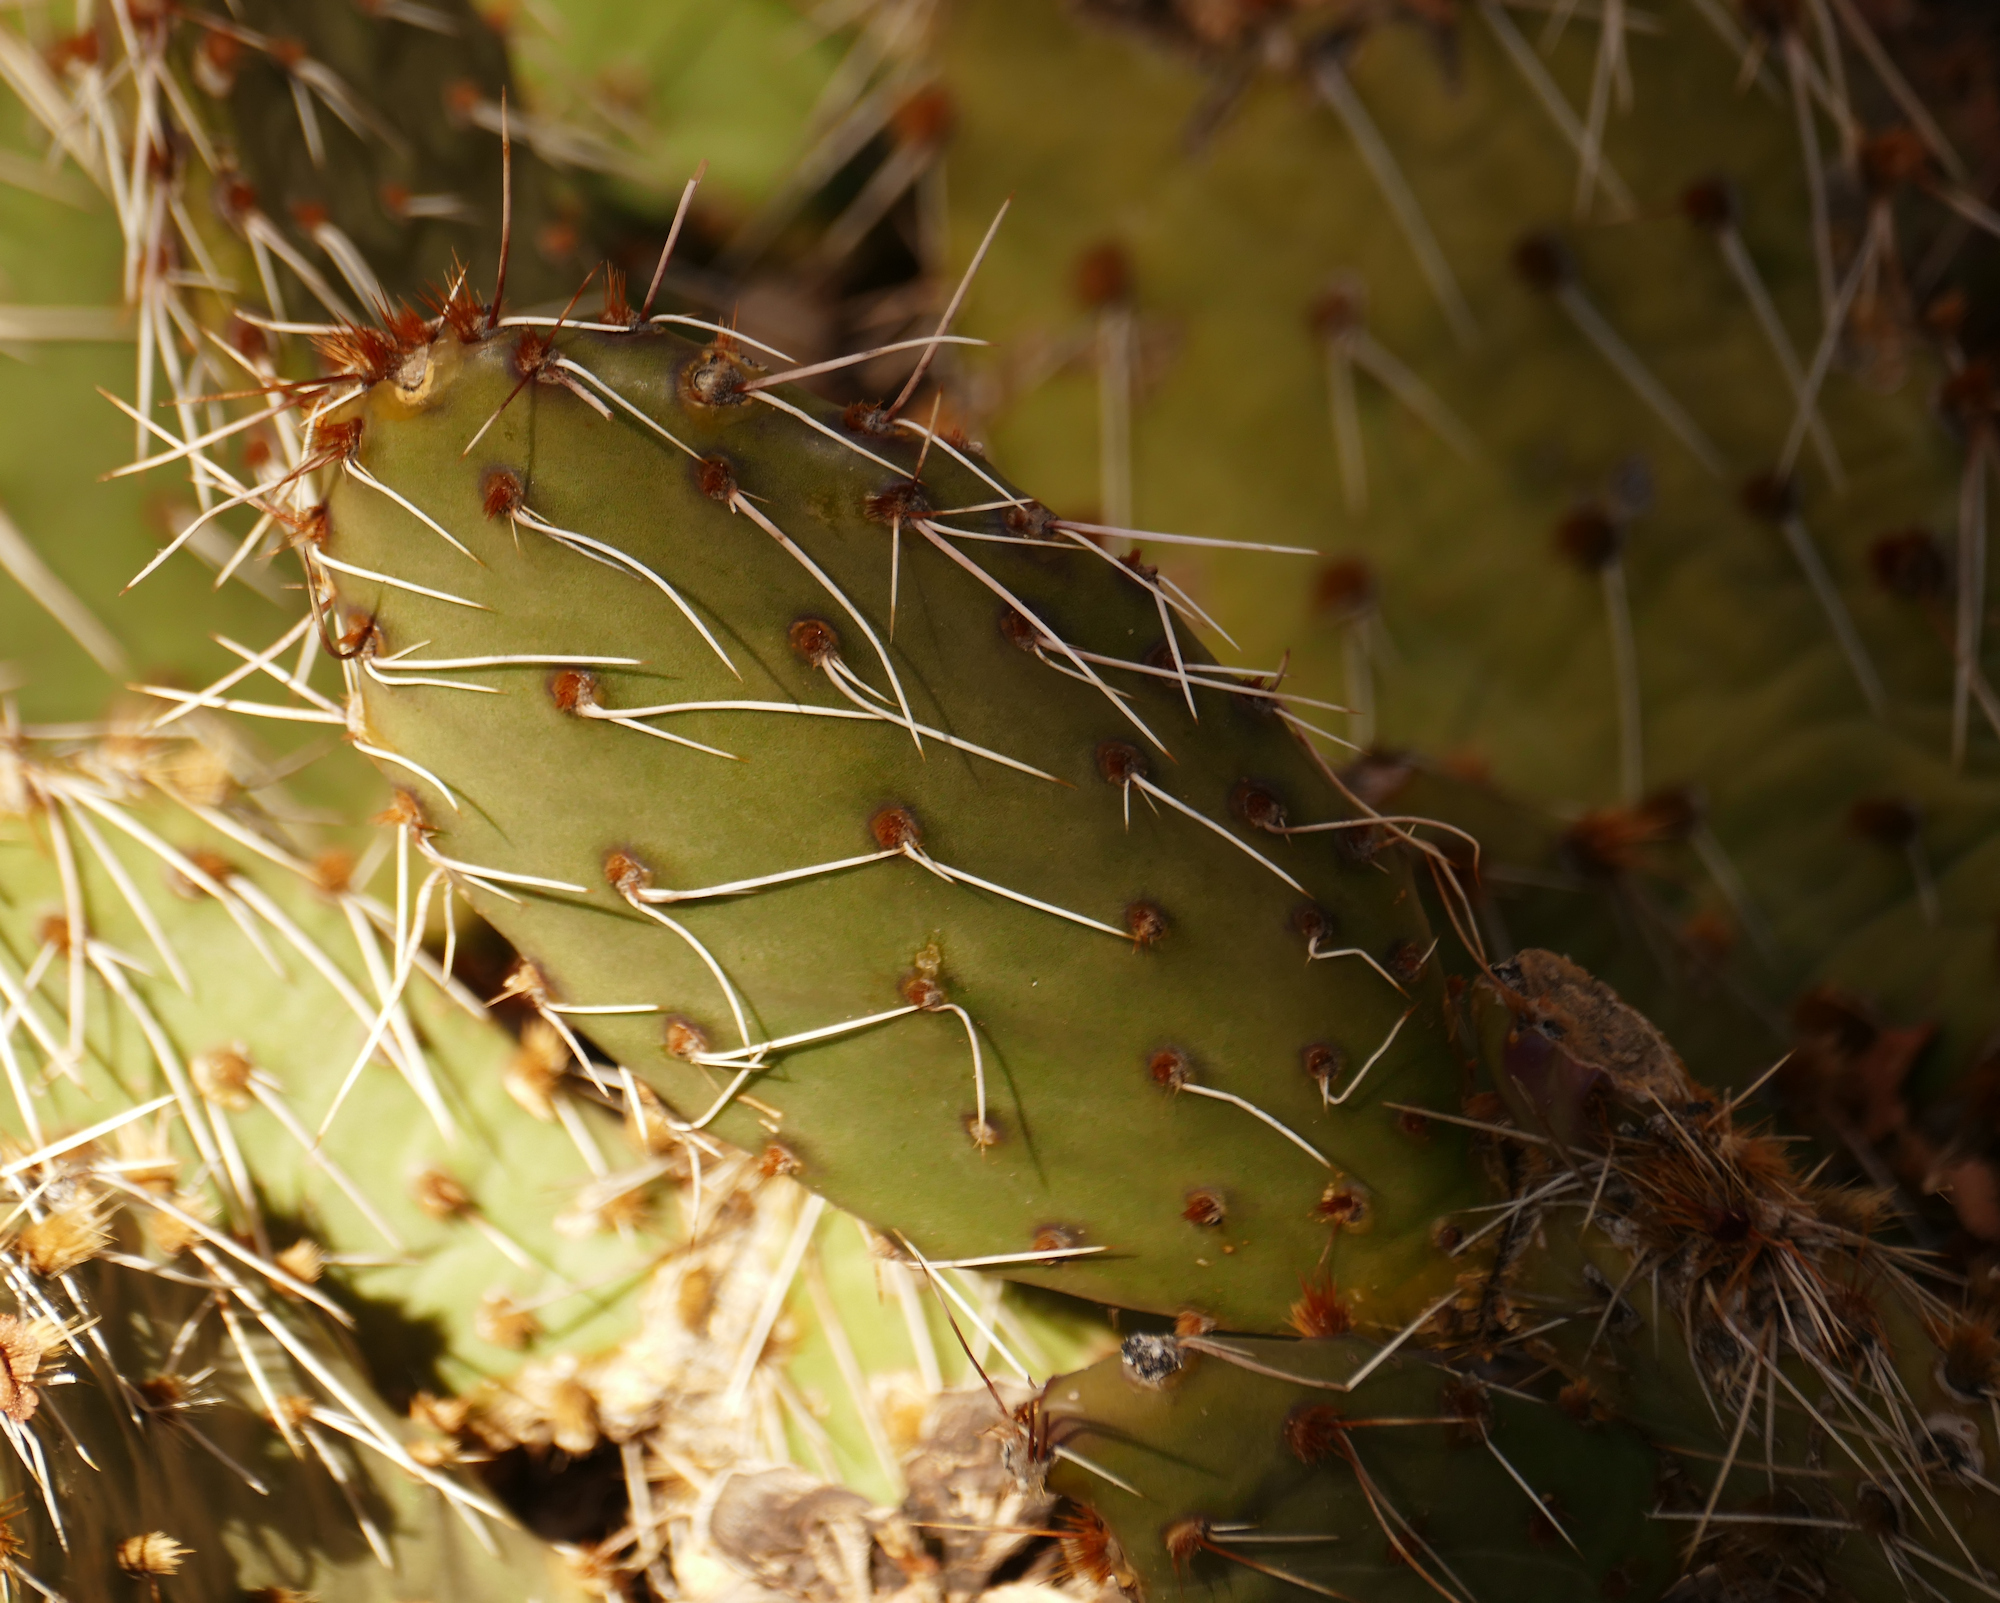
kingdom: Plantae
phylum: Tracheophyta
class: Magnoliopsida
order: Caryophyllales
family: Cactaceae
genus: Opuntia
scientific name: Opuntia phaeacantha
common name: New mexico prickly-pear
